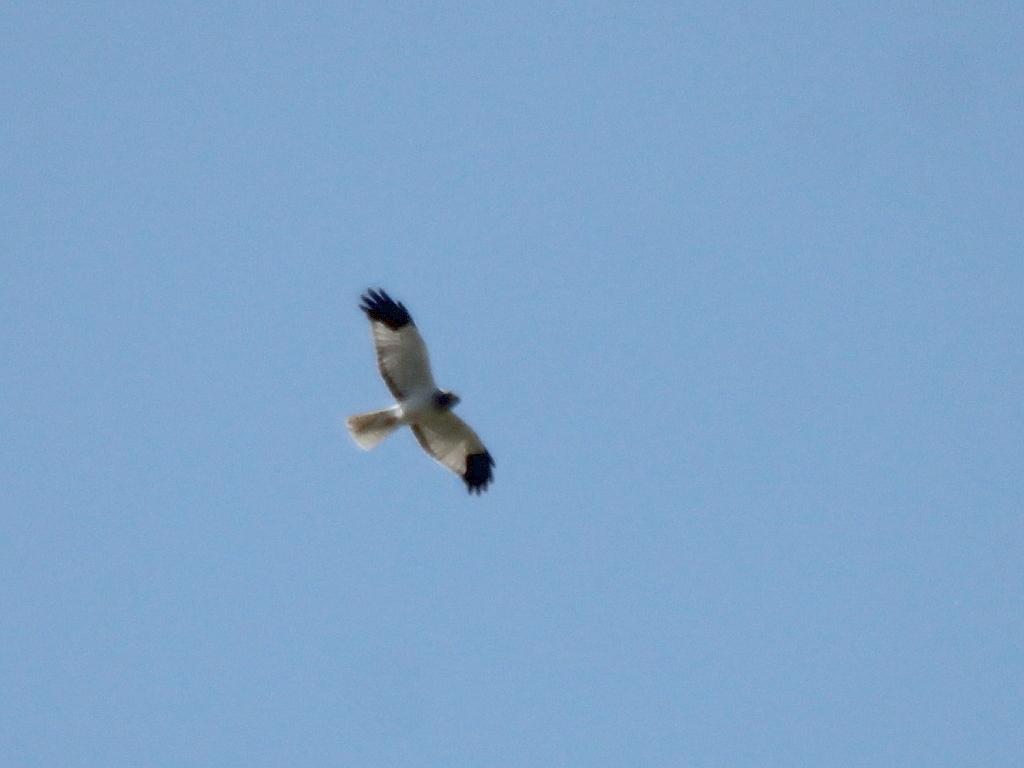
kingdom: Animalia
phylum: Chordata
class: Aves
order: Accipitriformes
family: Accipitridae
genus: Circus
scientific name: Circus cyaneus
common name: Hen harrier
